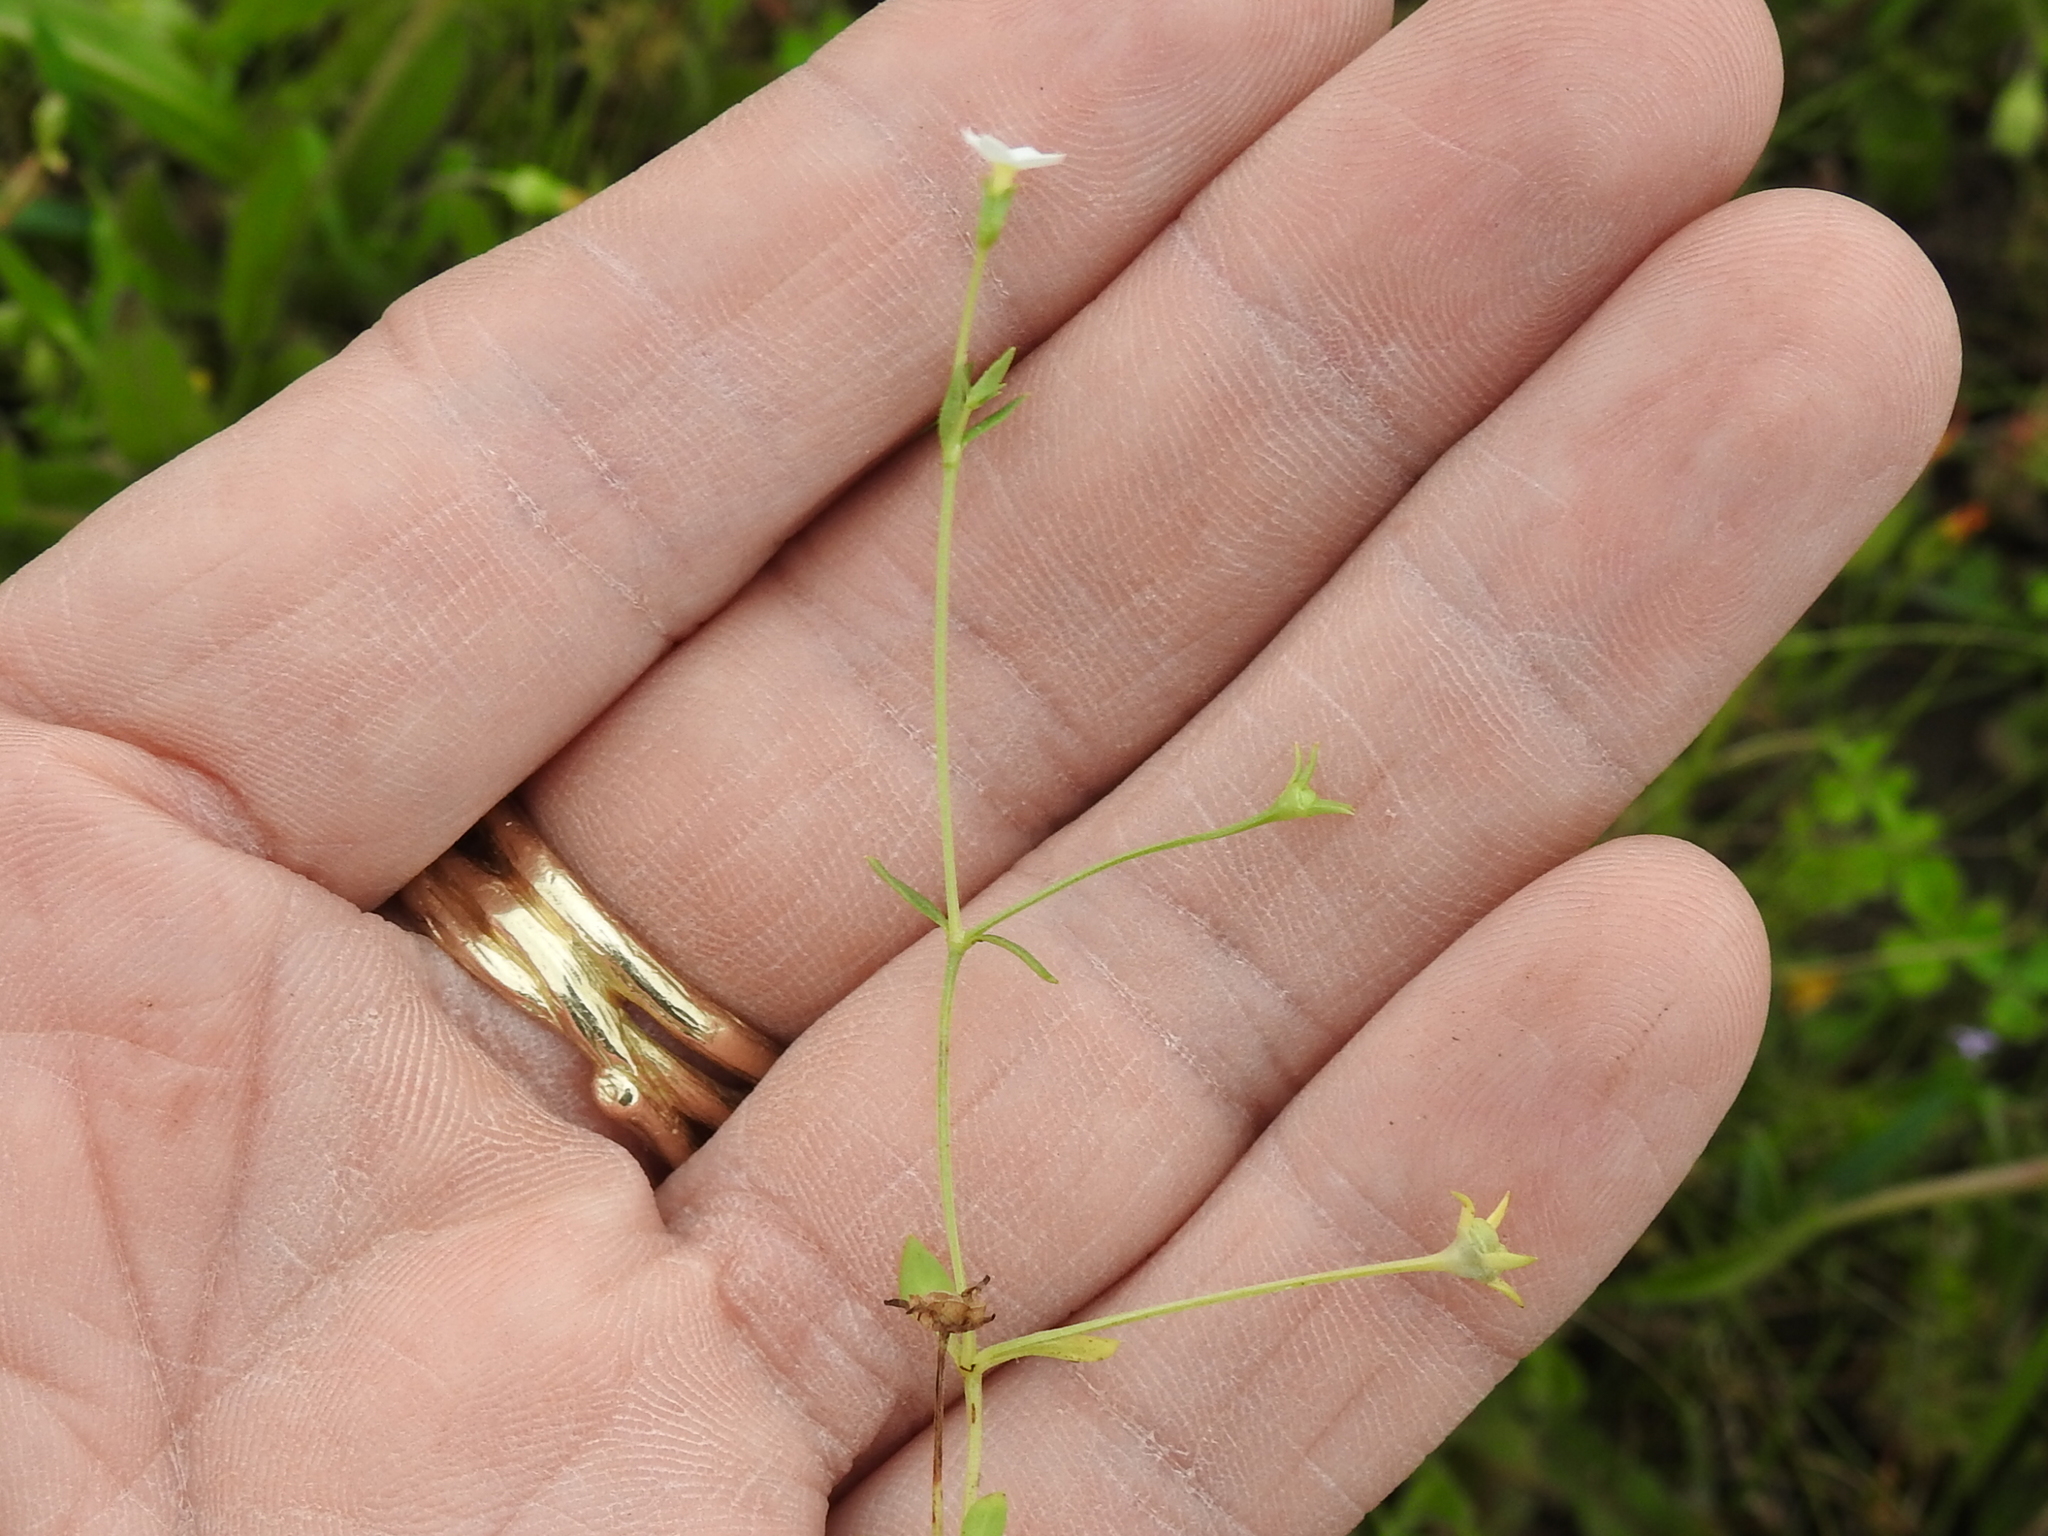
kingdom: Plantae
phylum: Tracheophyta
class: Magnoliopsida
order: Gentianales
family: Rubiaceae
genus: Houstonia
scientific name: Houstonia micrantha
